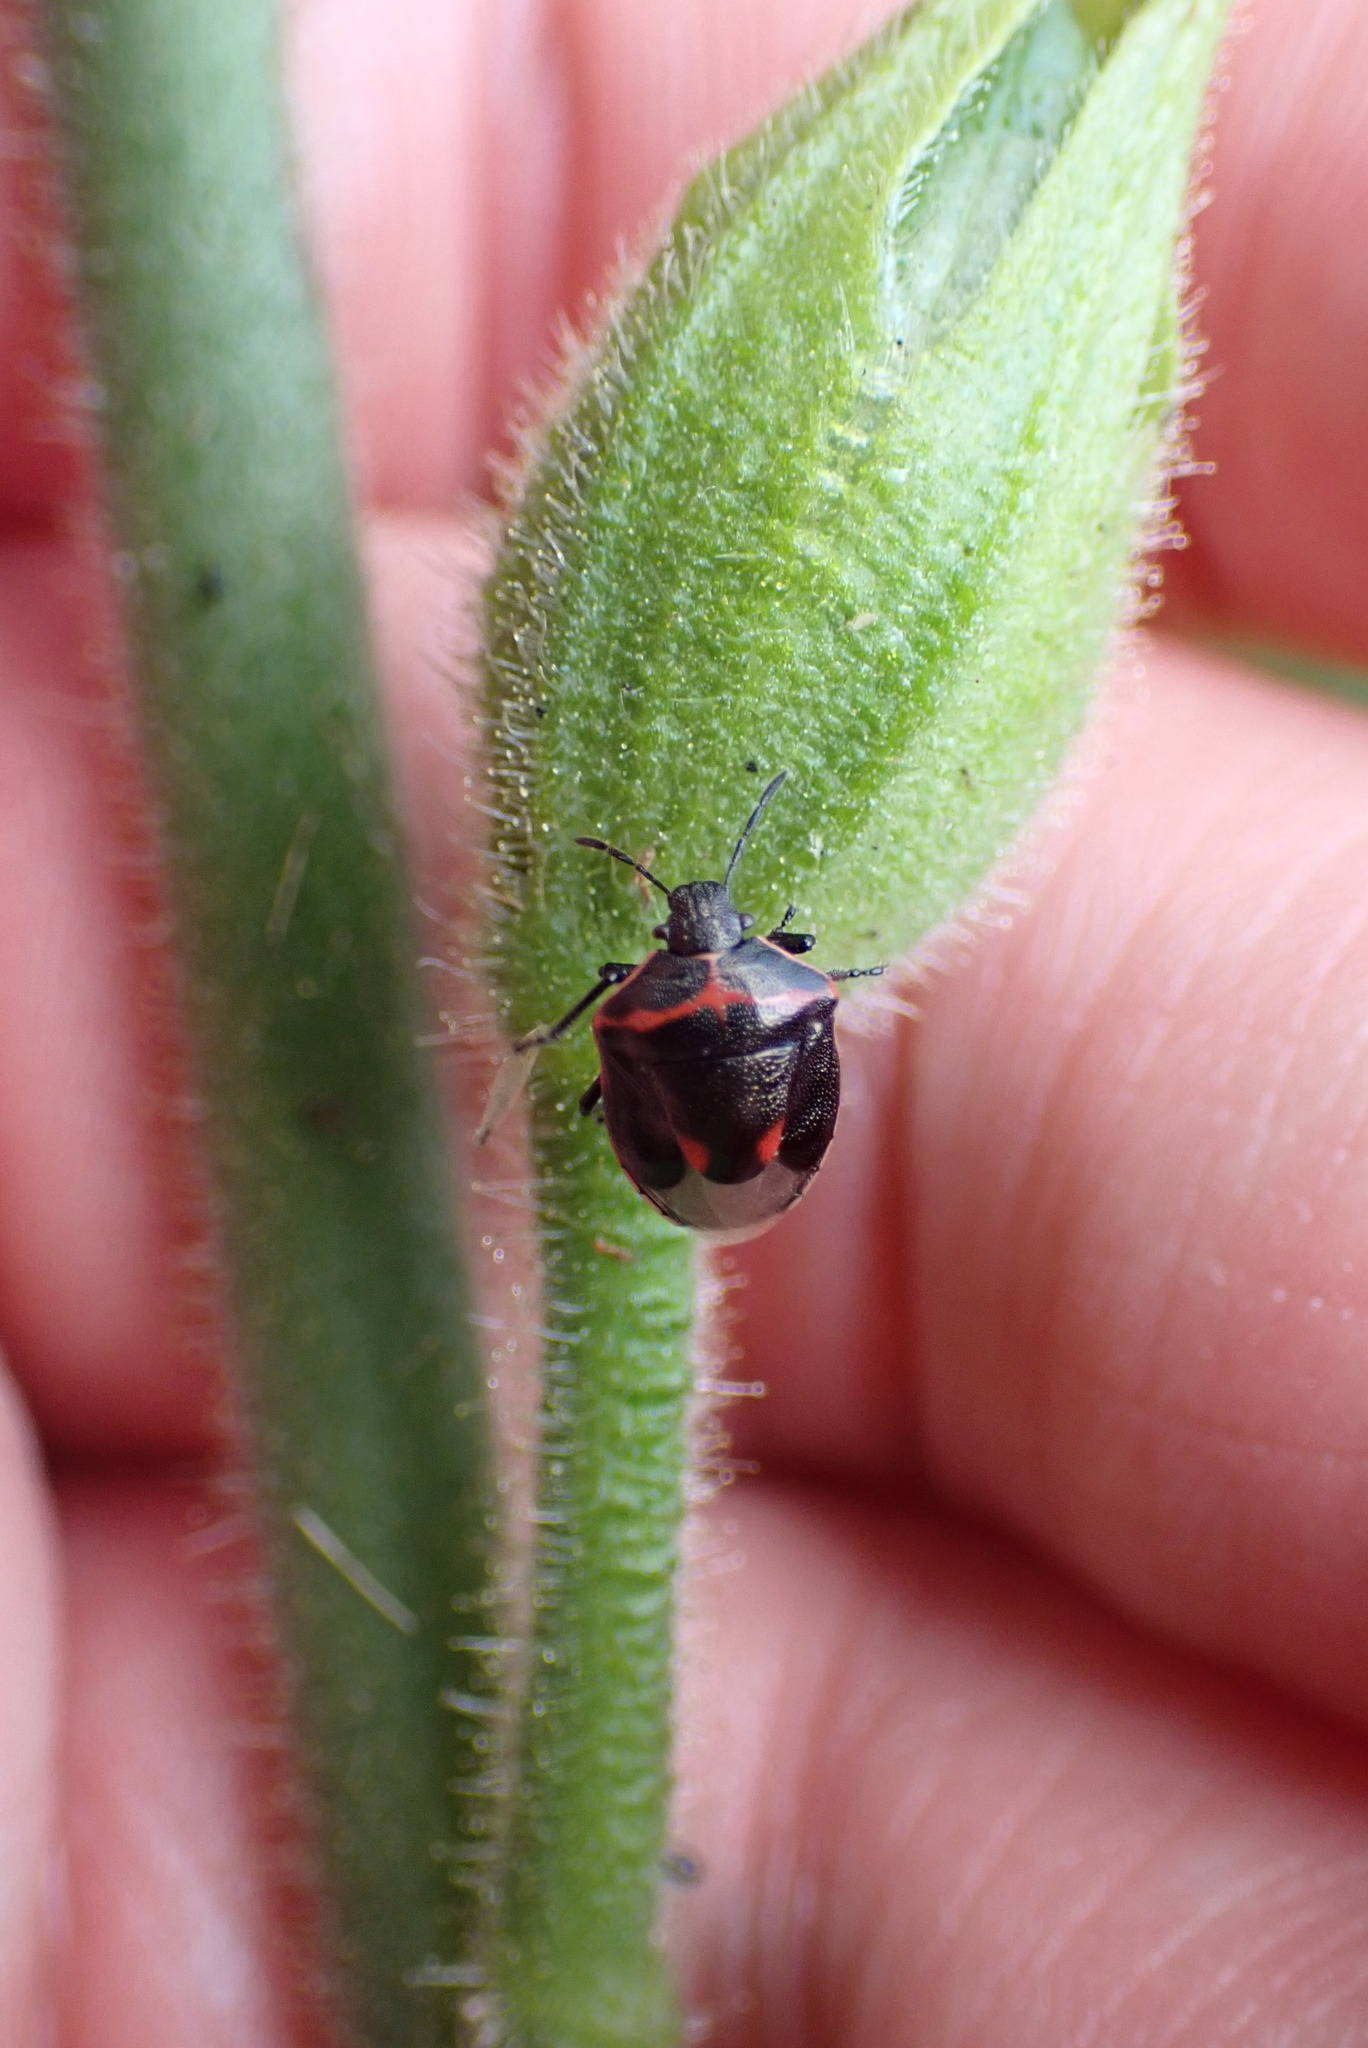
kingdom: Animalia
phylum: Arthropoda
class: Insecta
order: Hemiptera
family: Pentatomidae
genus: Cosmopepla
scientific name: Cosmopepla lintneriana
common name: Twice-stabbed stink bug
